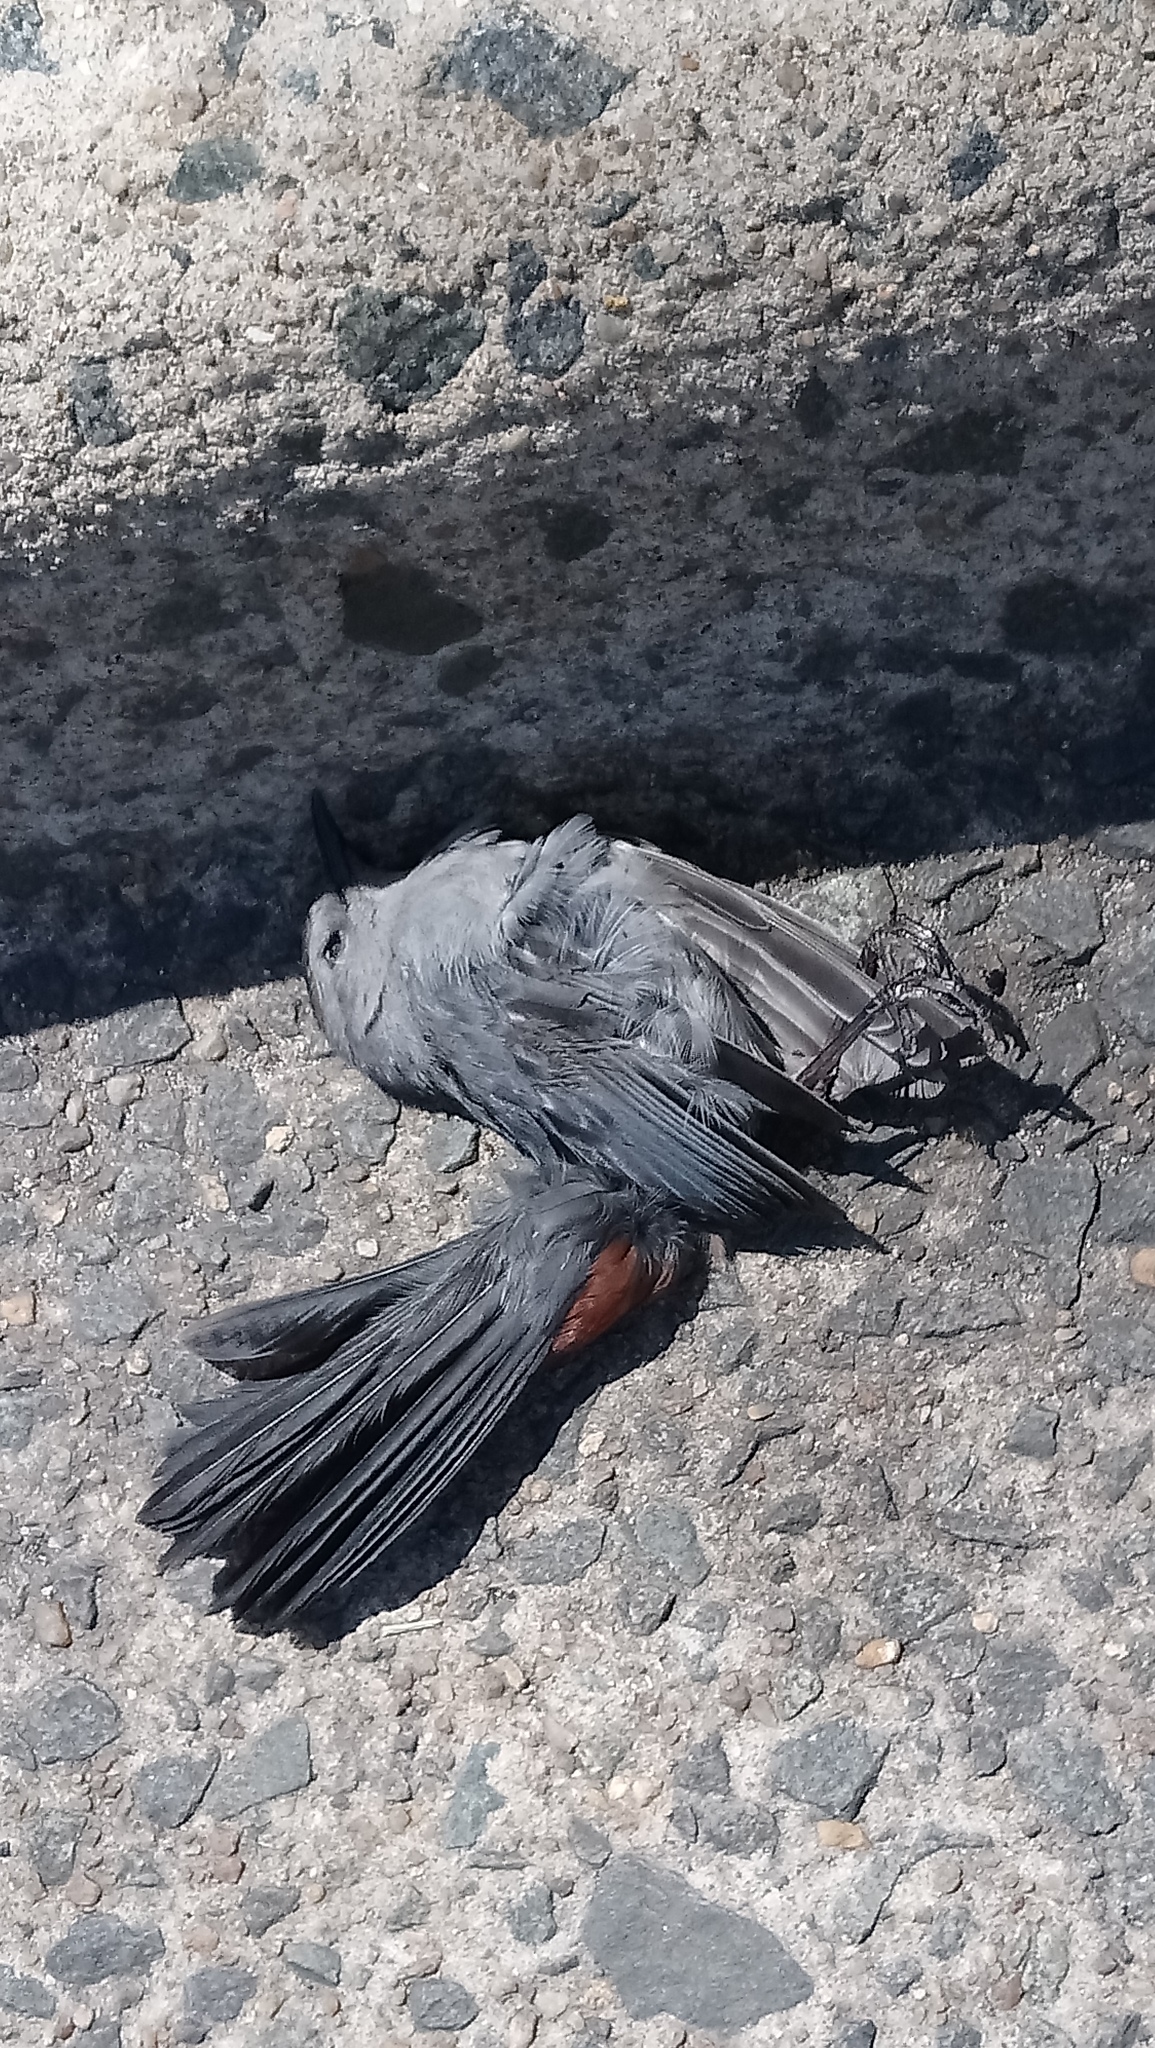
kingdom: Animalia
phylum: Chordata
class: Aves
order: Passeriformes
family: Mimidae
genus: Dumetella
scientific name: Dumetella carolinensis
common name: Gray catbird
